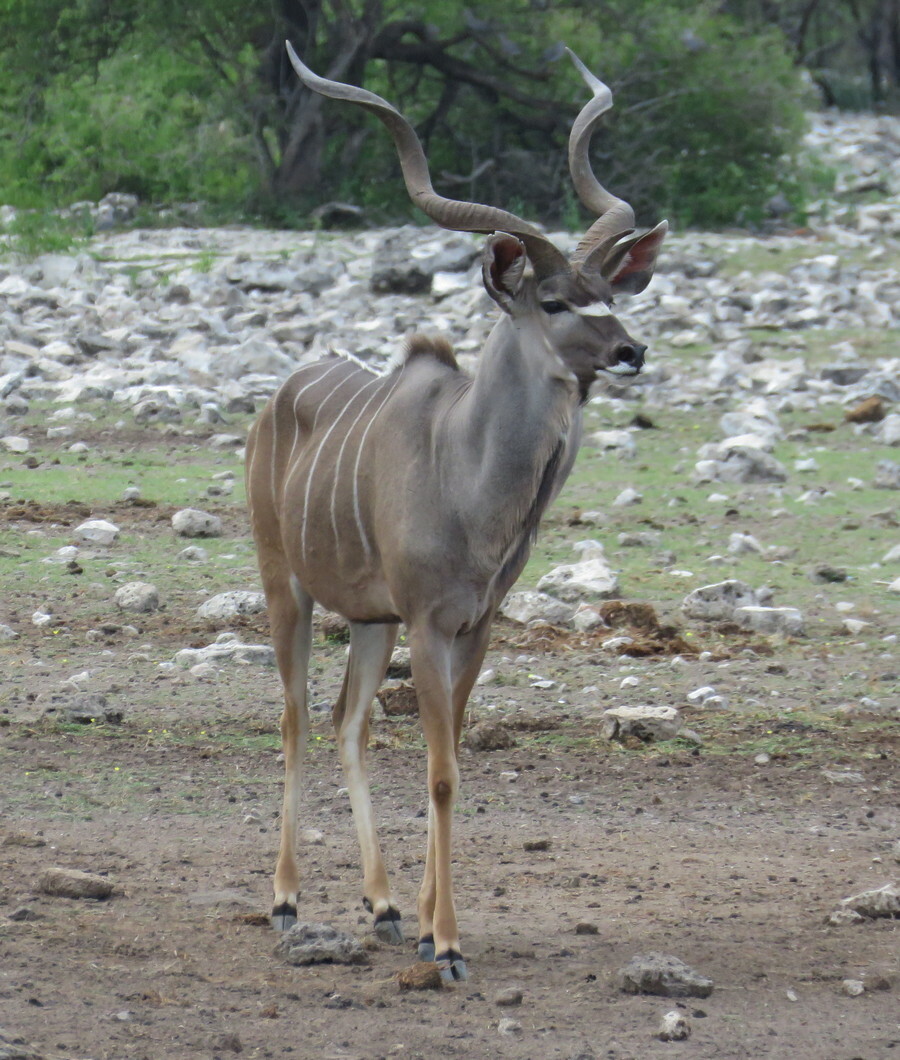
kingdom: Animalia
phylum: Chordata
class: Mammalia
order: Artiodactyla
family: Bovidae
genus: Tragelaphus
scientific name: Tragelaphus strepsiceros
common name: Greater kudu
